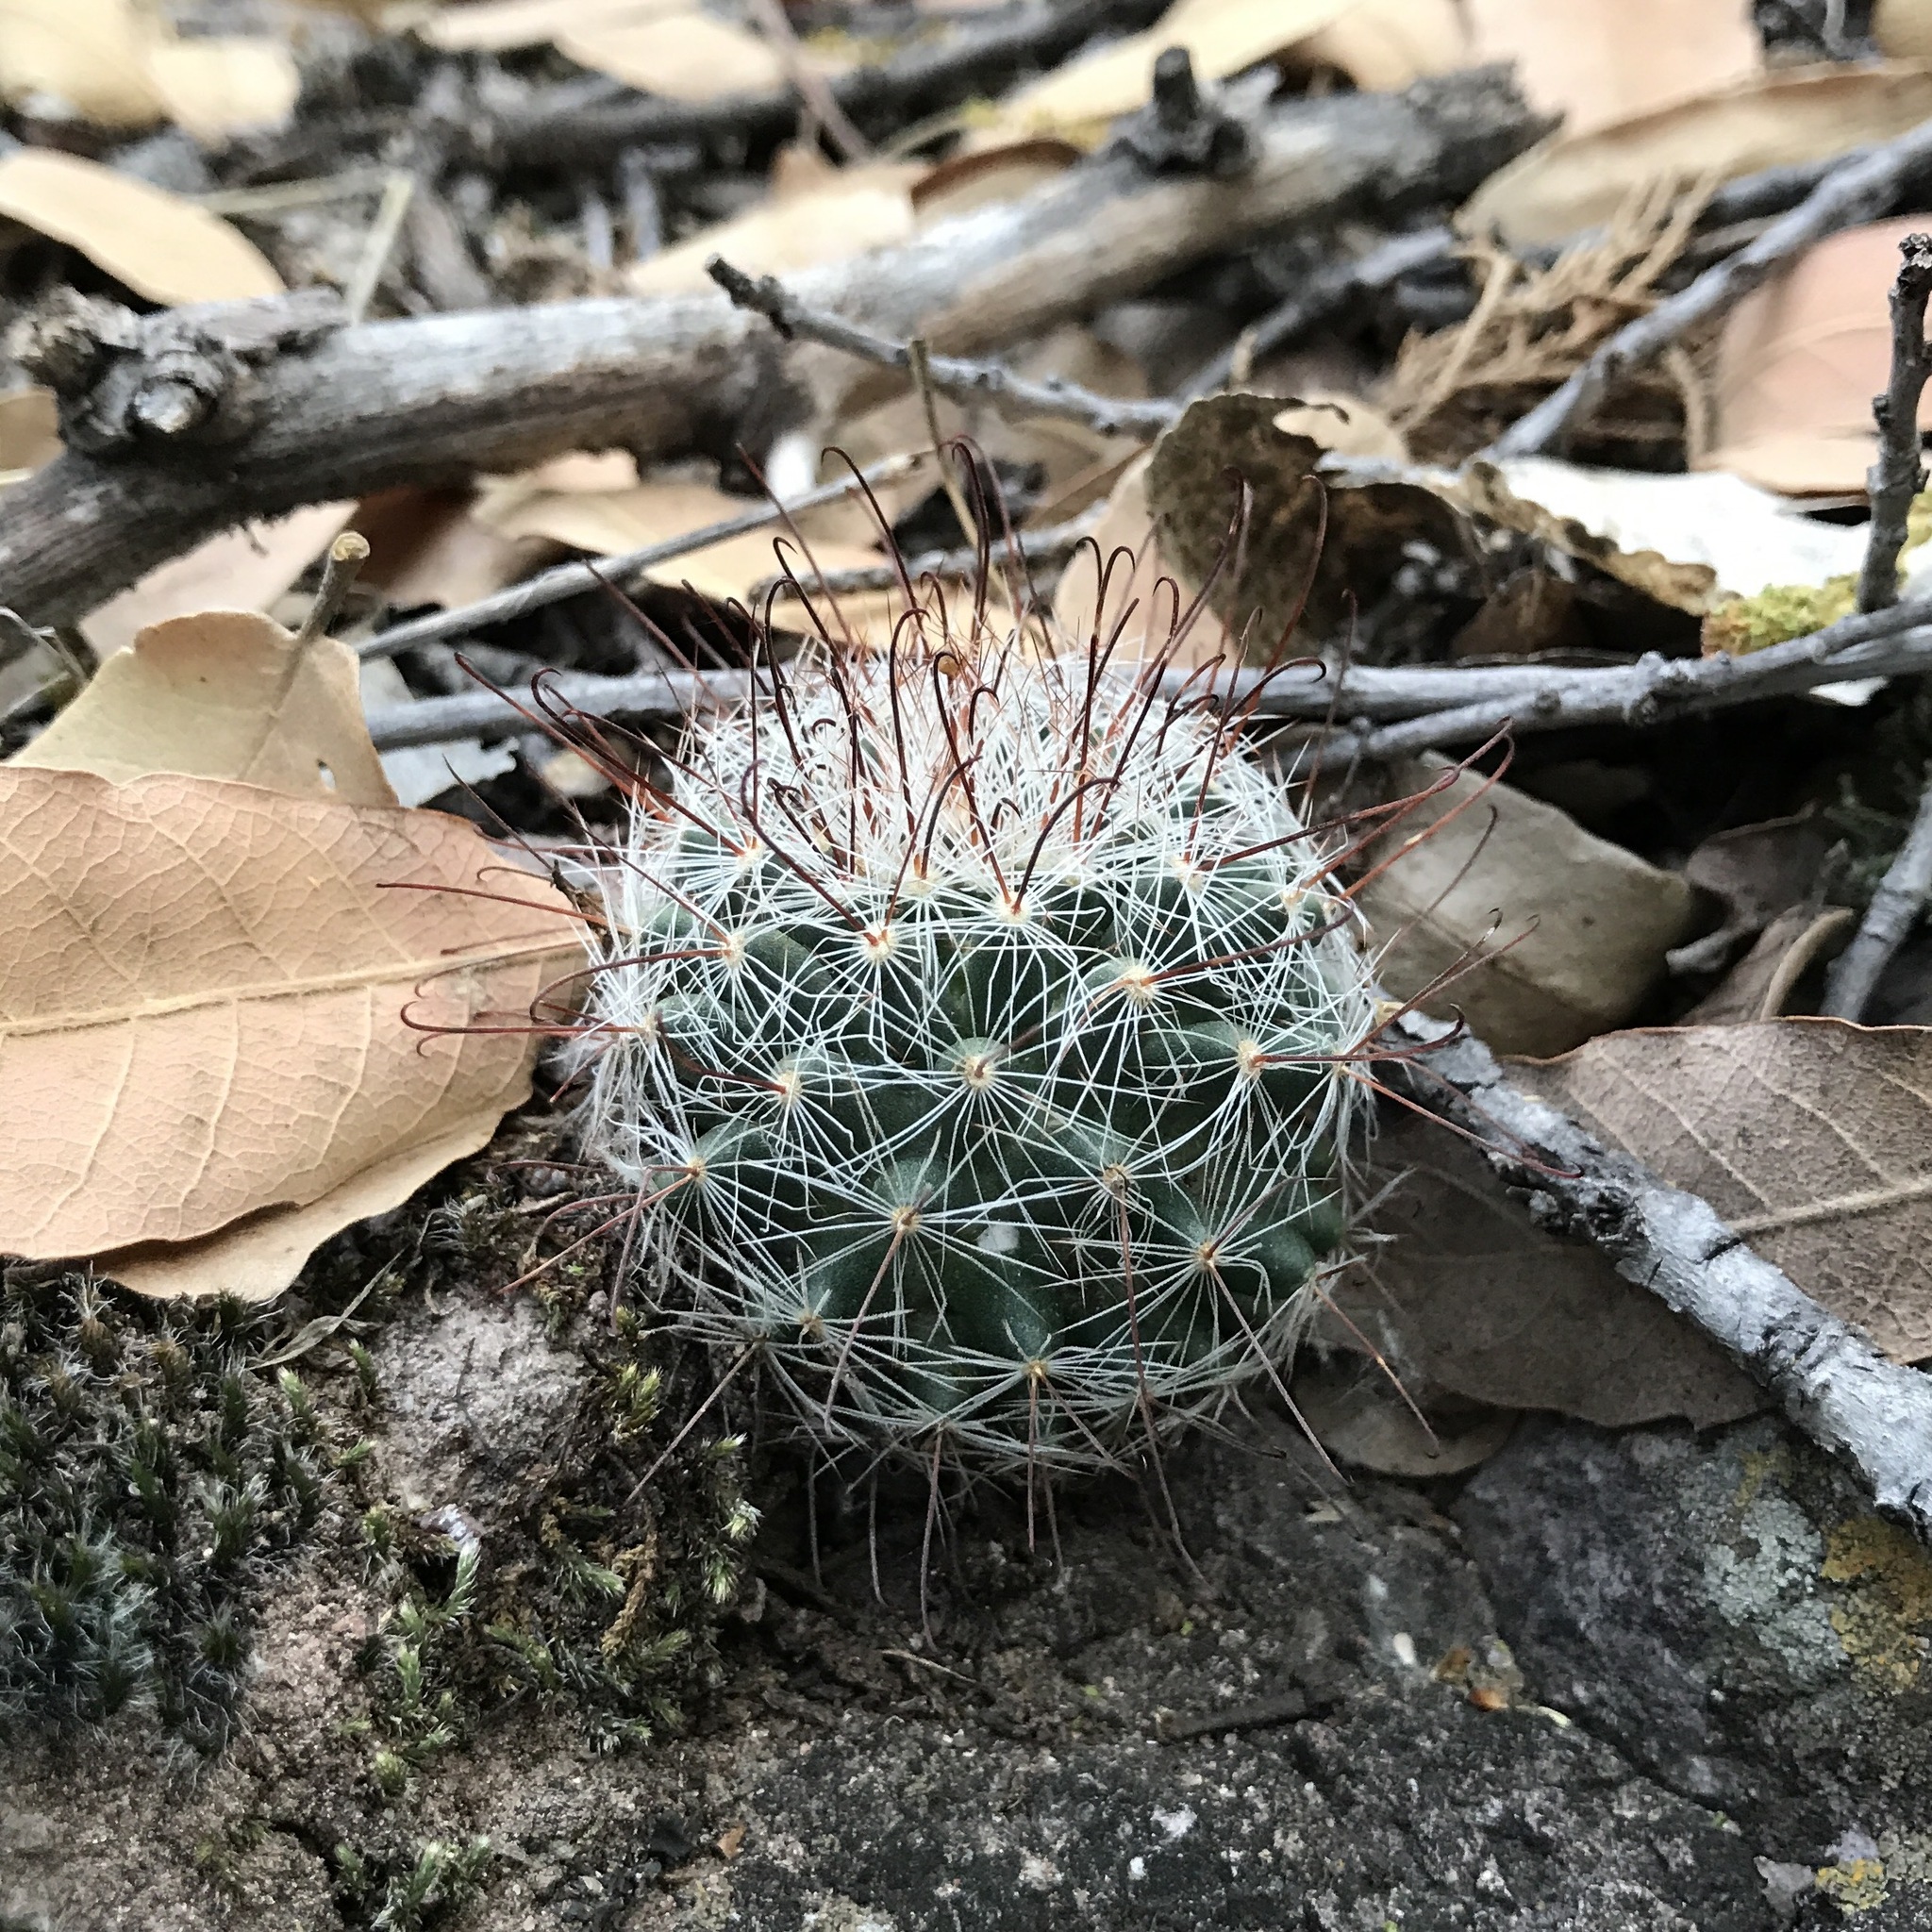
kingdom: Plantae
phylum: Tracheophyta
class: Magnoliopsida
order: Caryophyllales
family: Cactaceae
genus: Cochemiea
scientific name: Cochemiea wrightii
